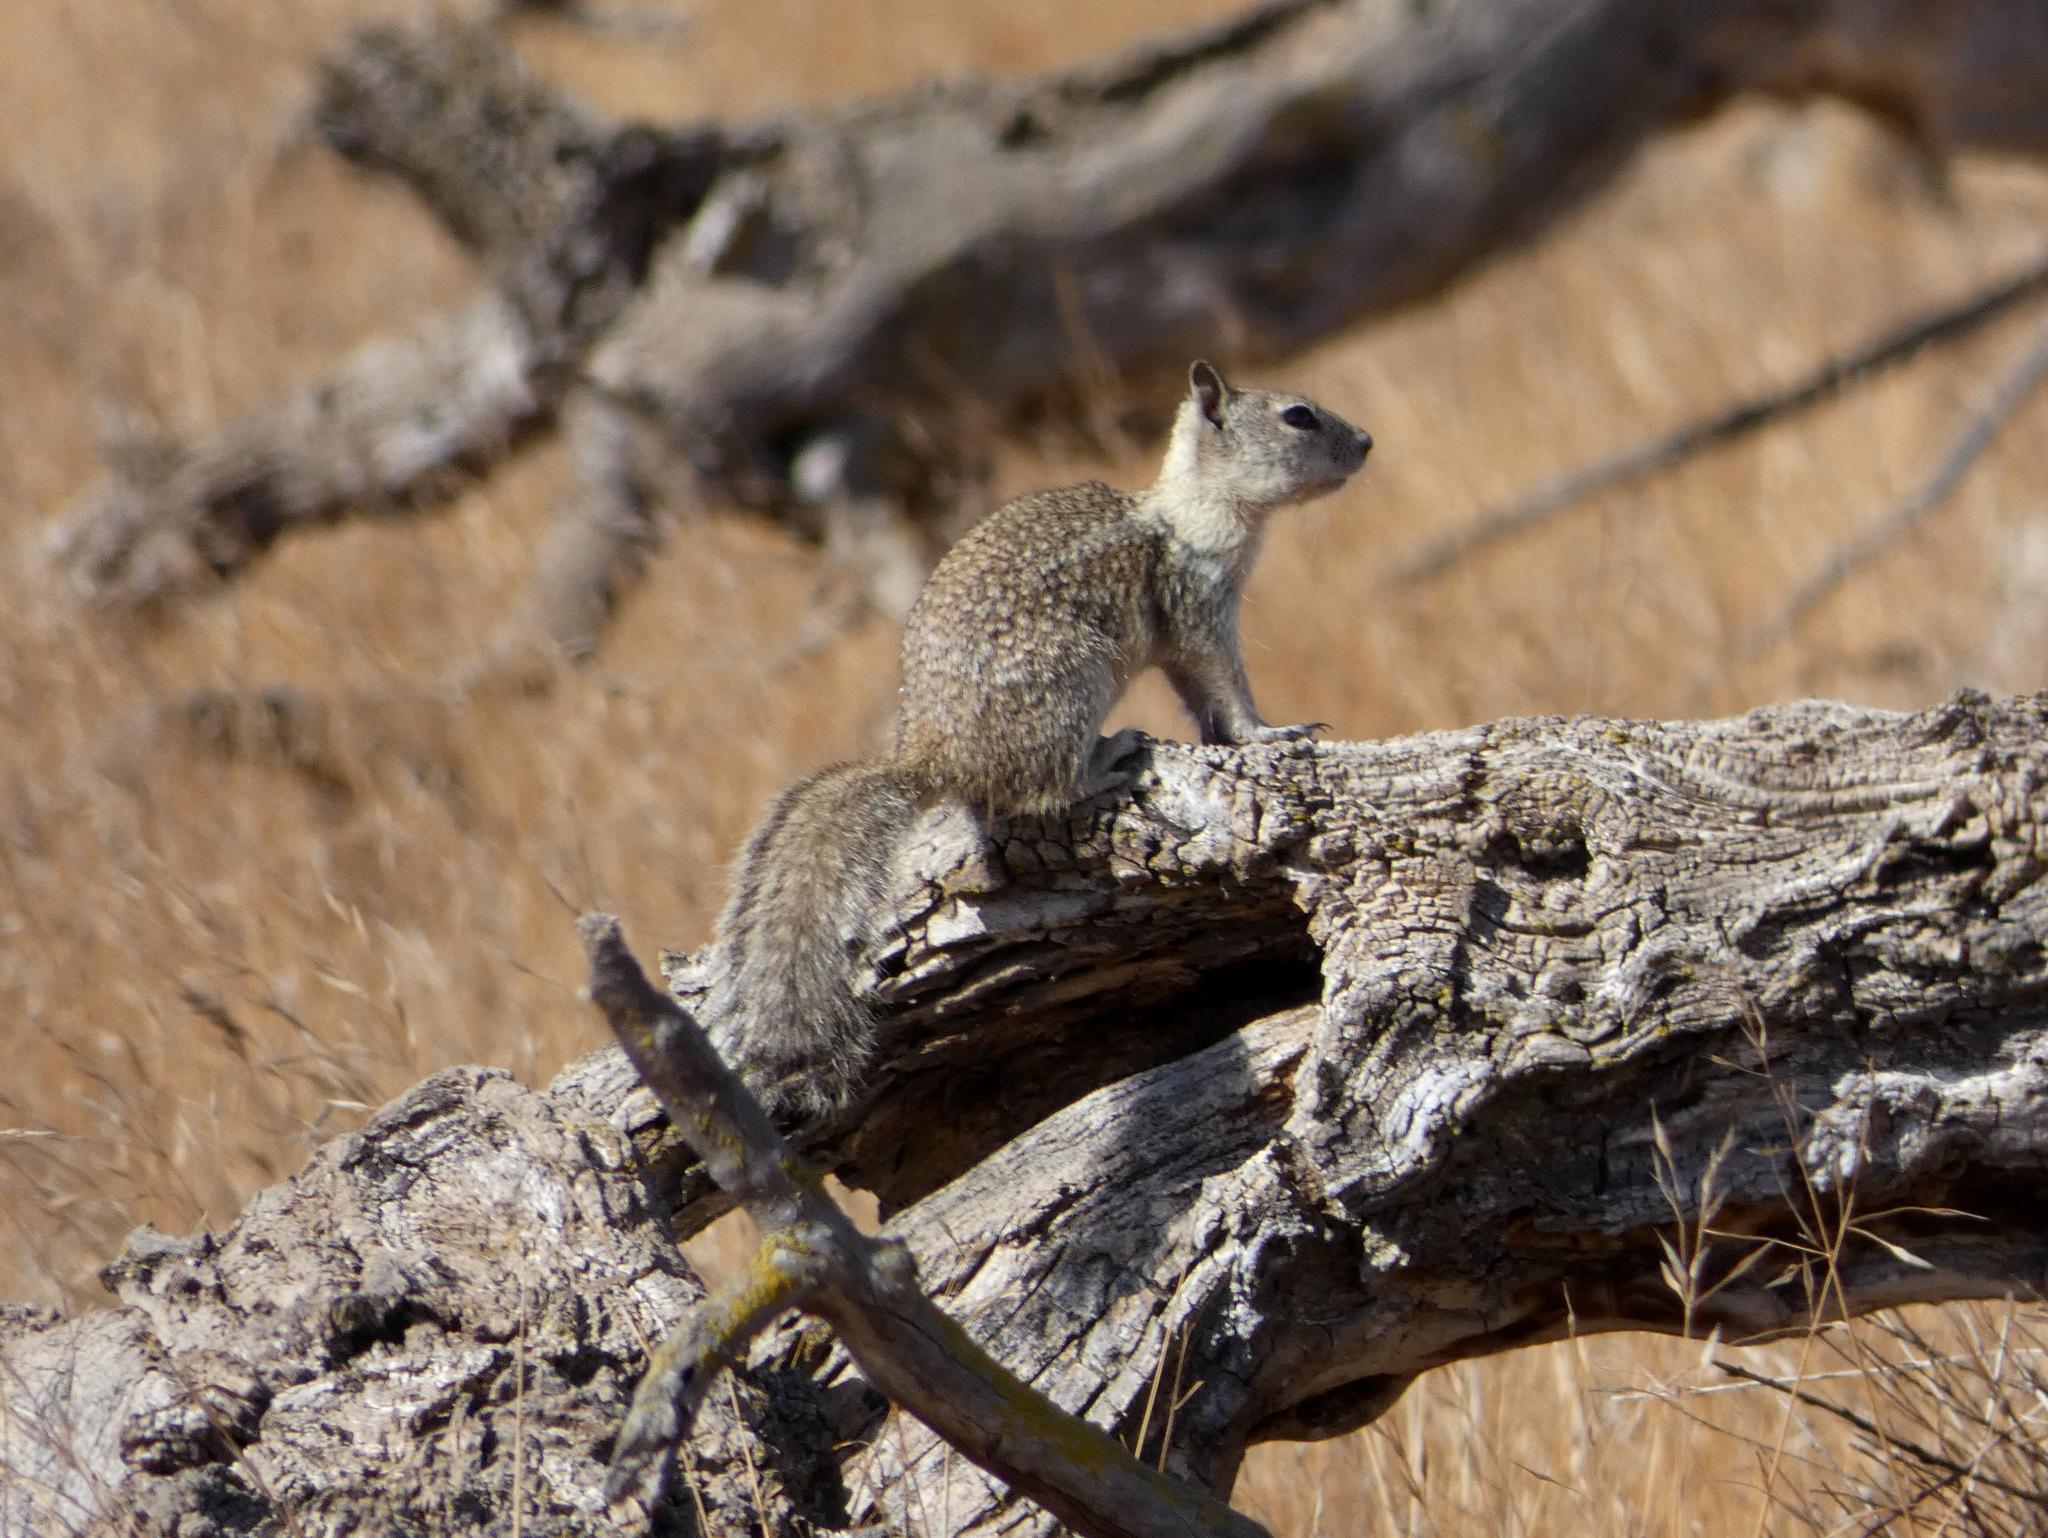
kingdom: Animalia
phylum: Chordata
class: Mammalia
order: Rodentia
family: Sciuridae
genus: Otospermophilus
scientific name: Otospermophilus beecheyi
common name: California ground squirrel
